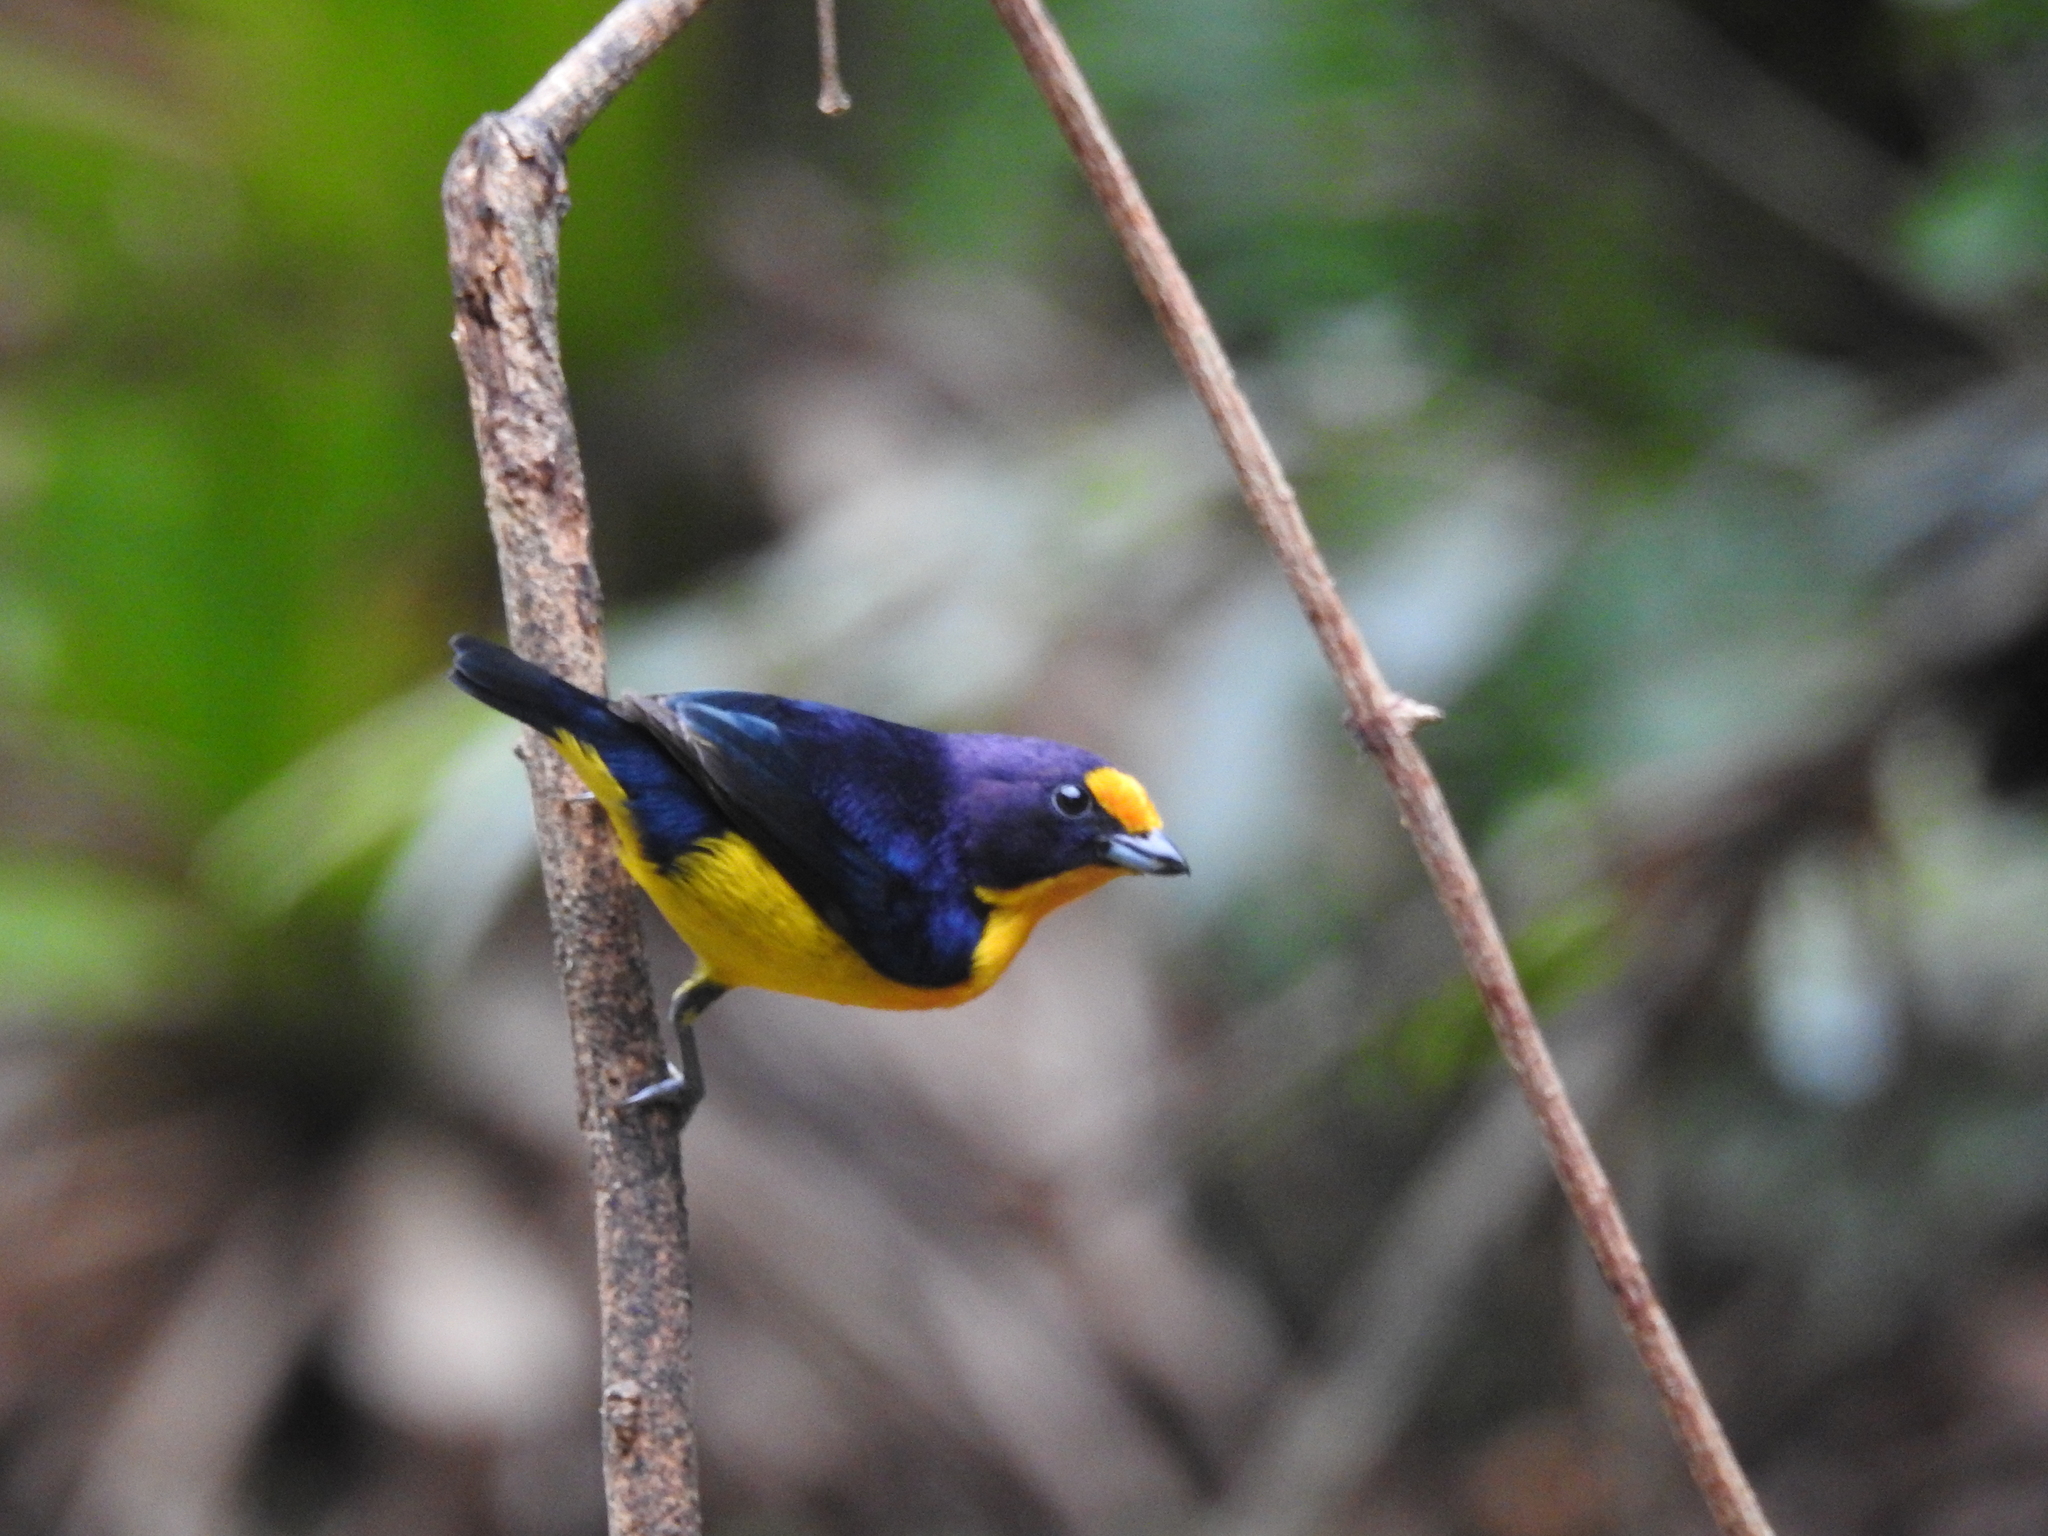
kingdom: Animalia
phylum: Chordata
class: Aves
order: Passeriformes
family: Fringillidae
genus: Euphonia
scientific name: Euphonia violacea
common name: Violaceous euphonia
